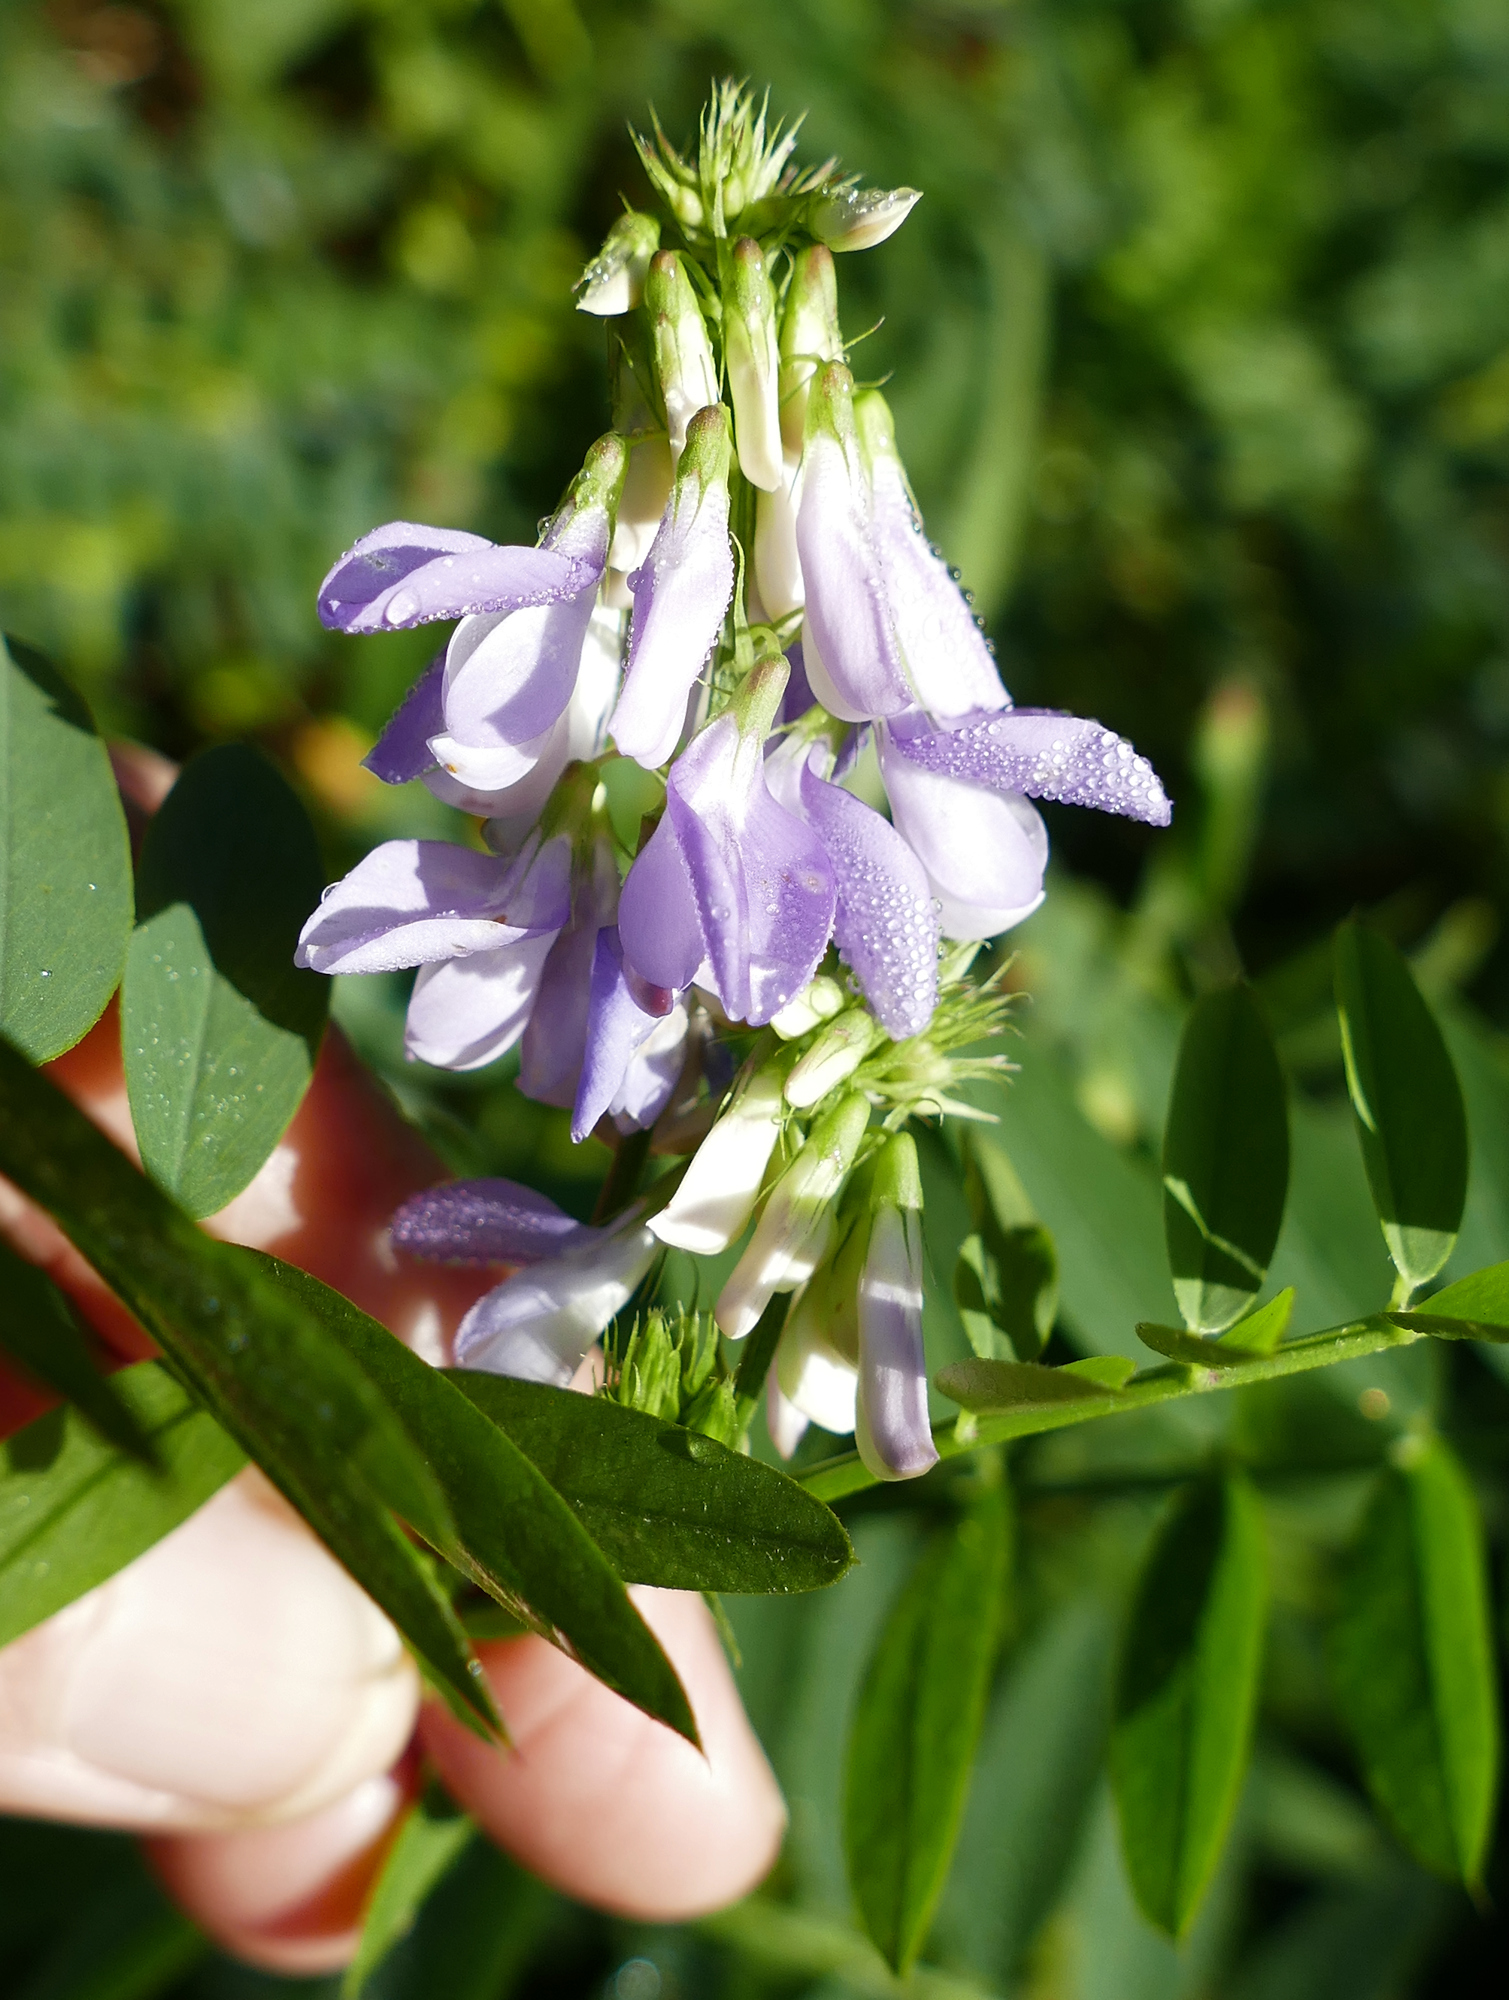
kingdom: Plantae
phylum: Tracheophyta
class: Magnoliopsida
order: Fabales
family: Fabaceae
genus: Galega
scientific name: Galega officinalis
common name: Goat's-rue
